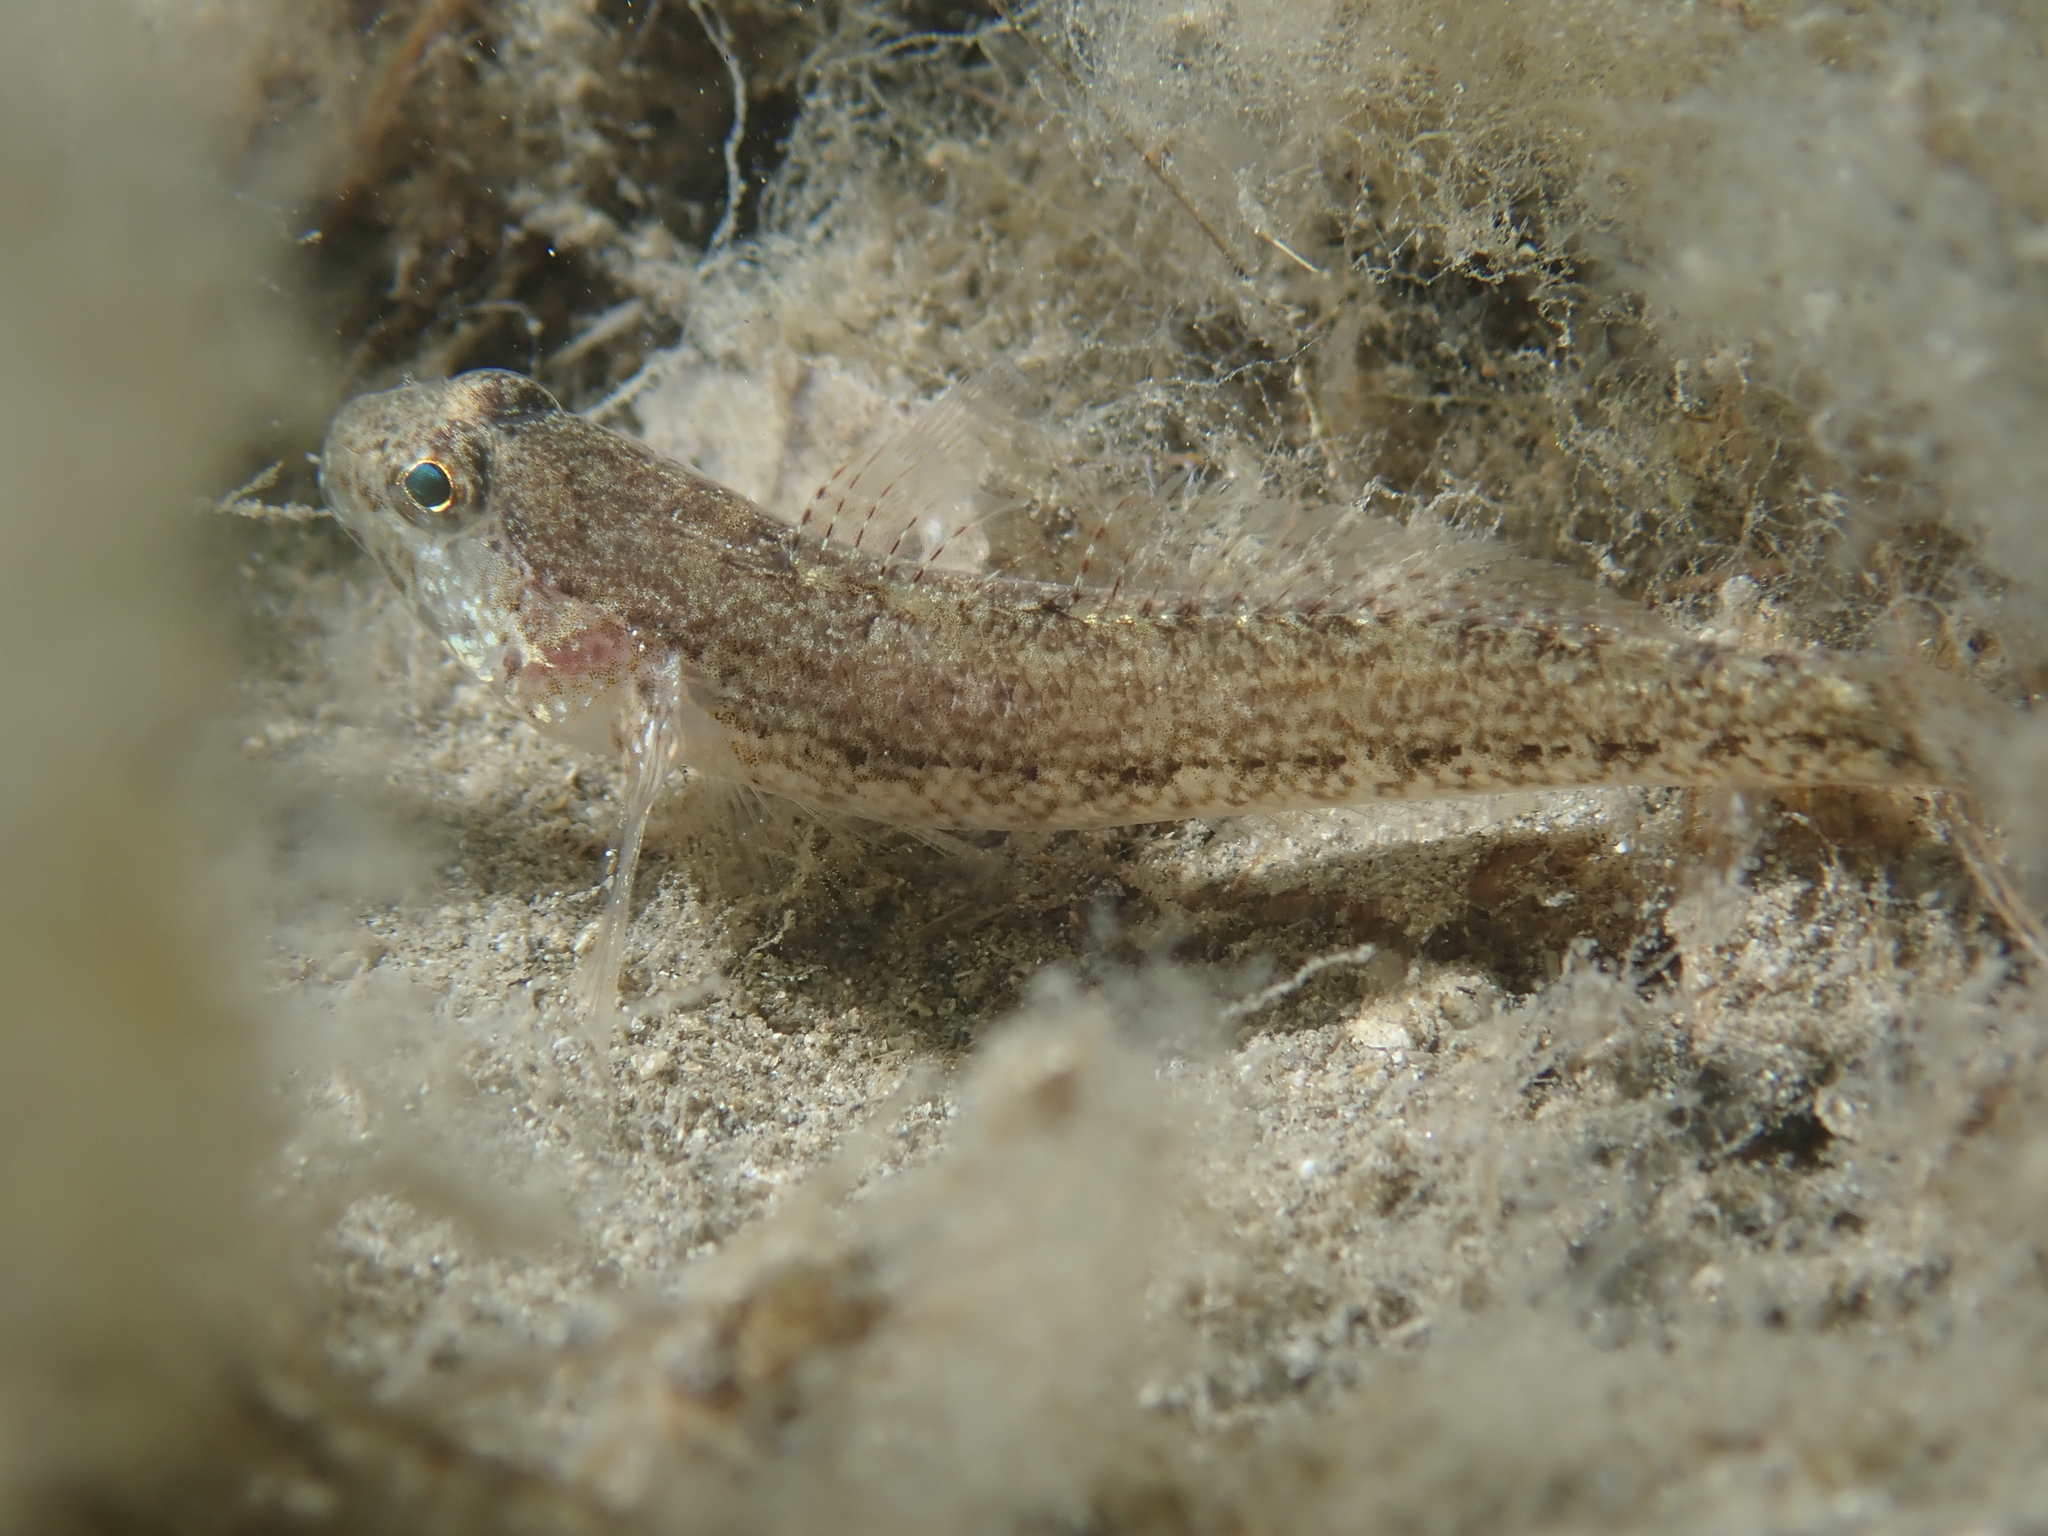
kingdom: Animalia
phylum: Chordata
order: Perciformes
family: Gobiidae
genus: Gobius
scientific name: Gobius couchi
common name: Couch's goby
